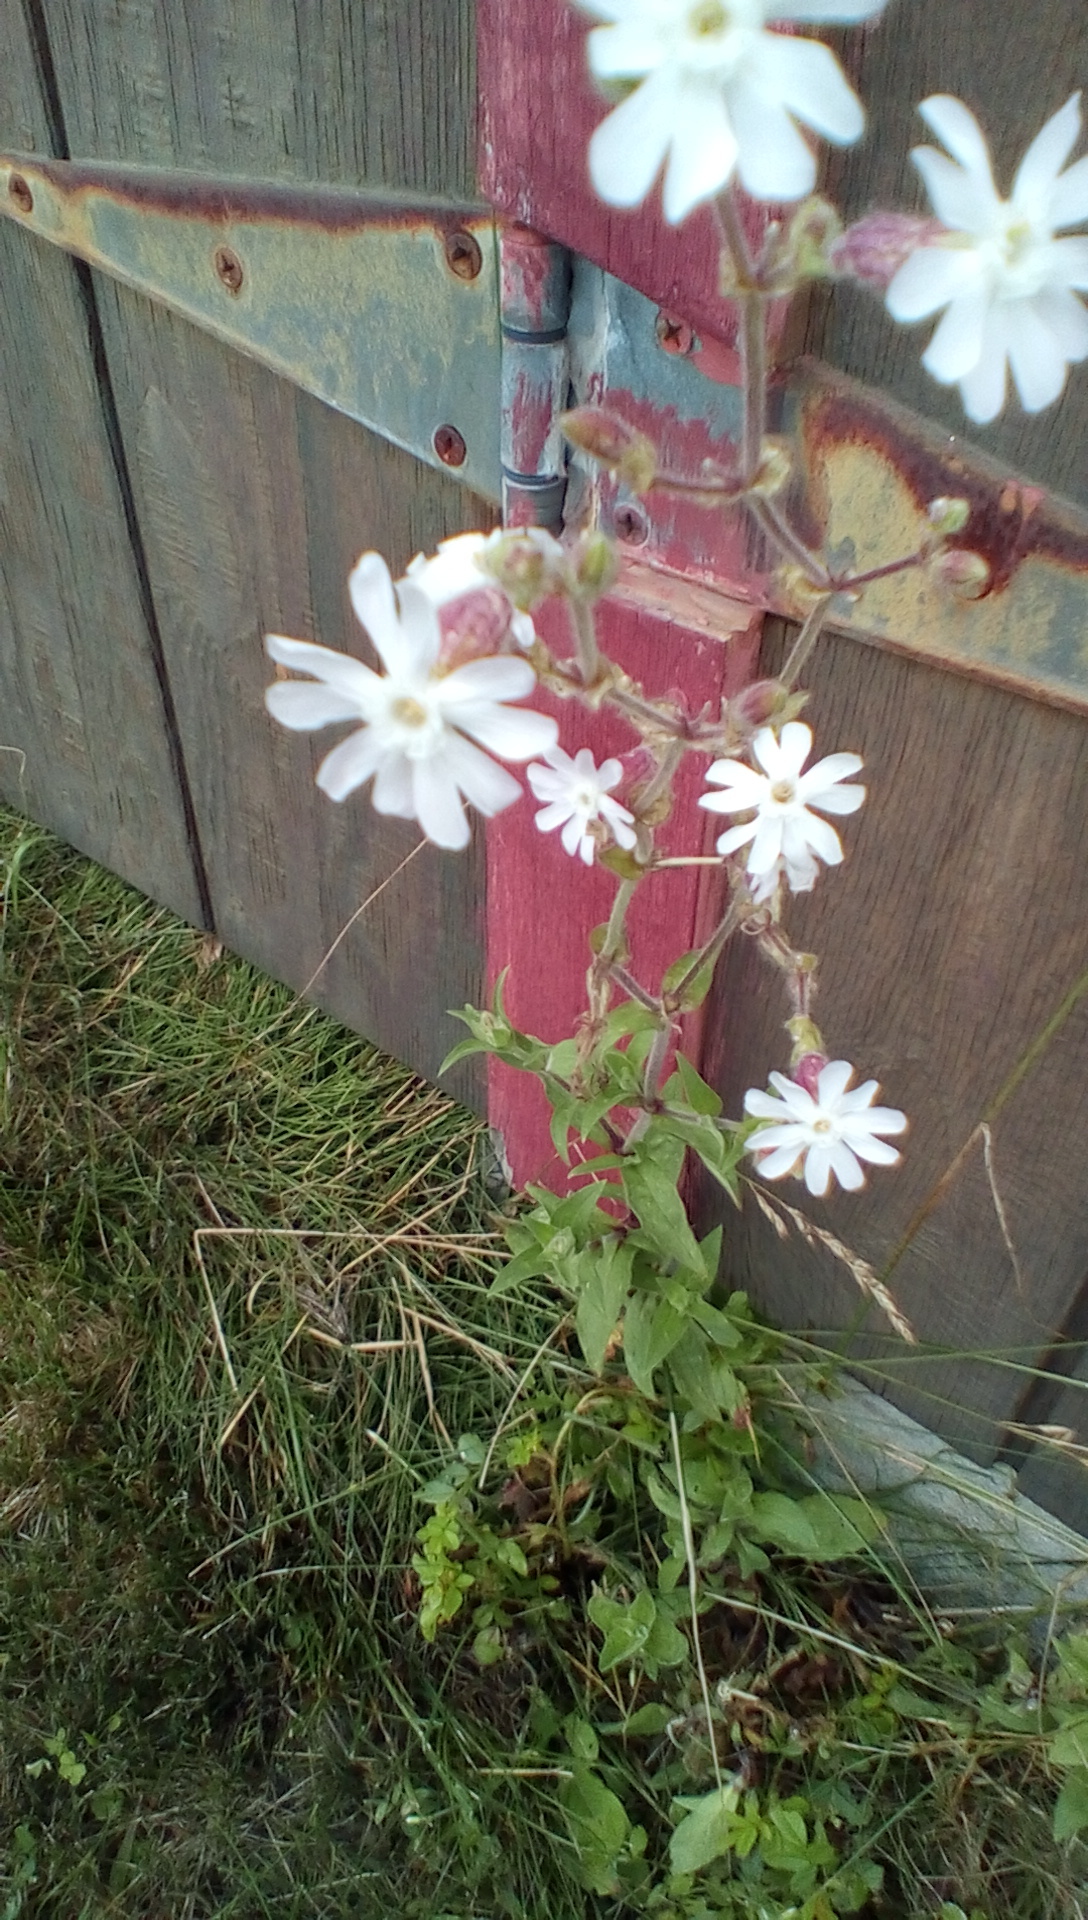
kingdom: Plantae
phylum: Tracheophyta
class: Magnoliopsida
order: Caryophyllales
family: Caryophyllaceae
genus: Silene
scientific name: Silene latifolia
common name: White campion
